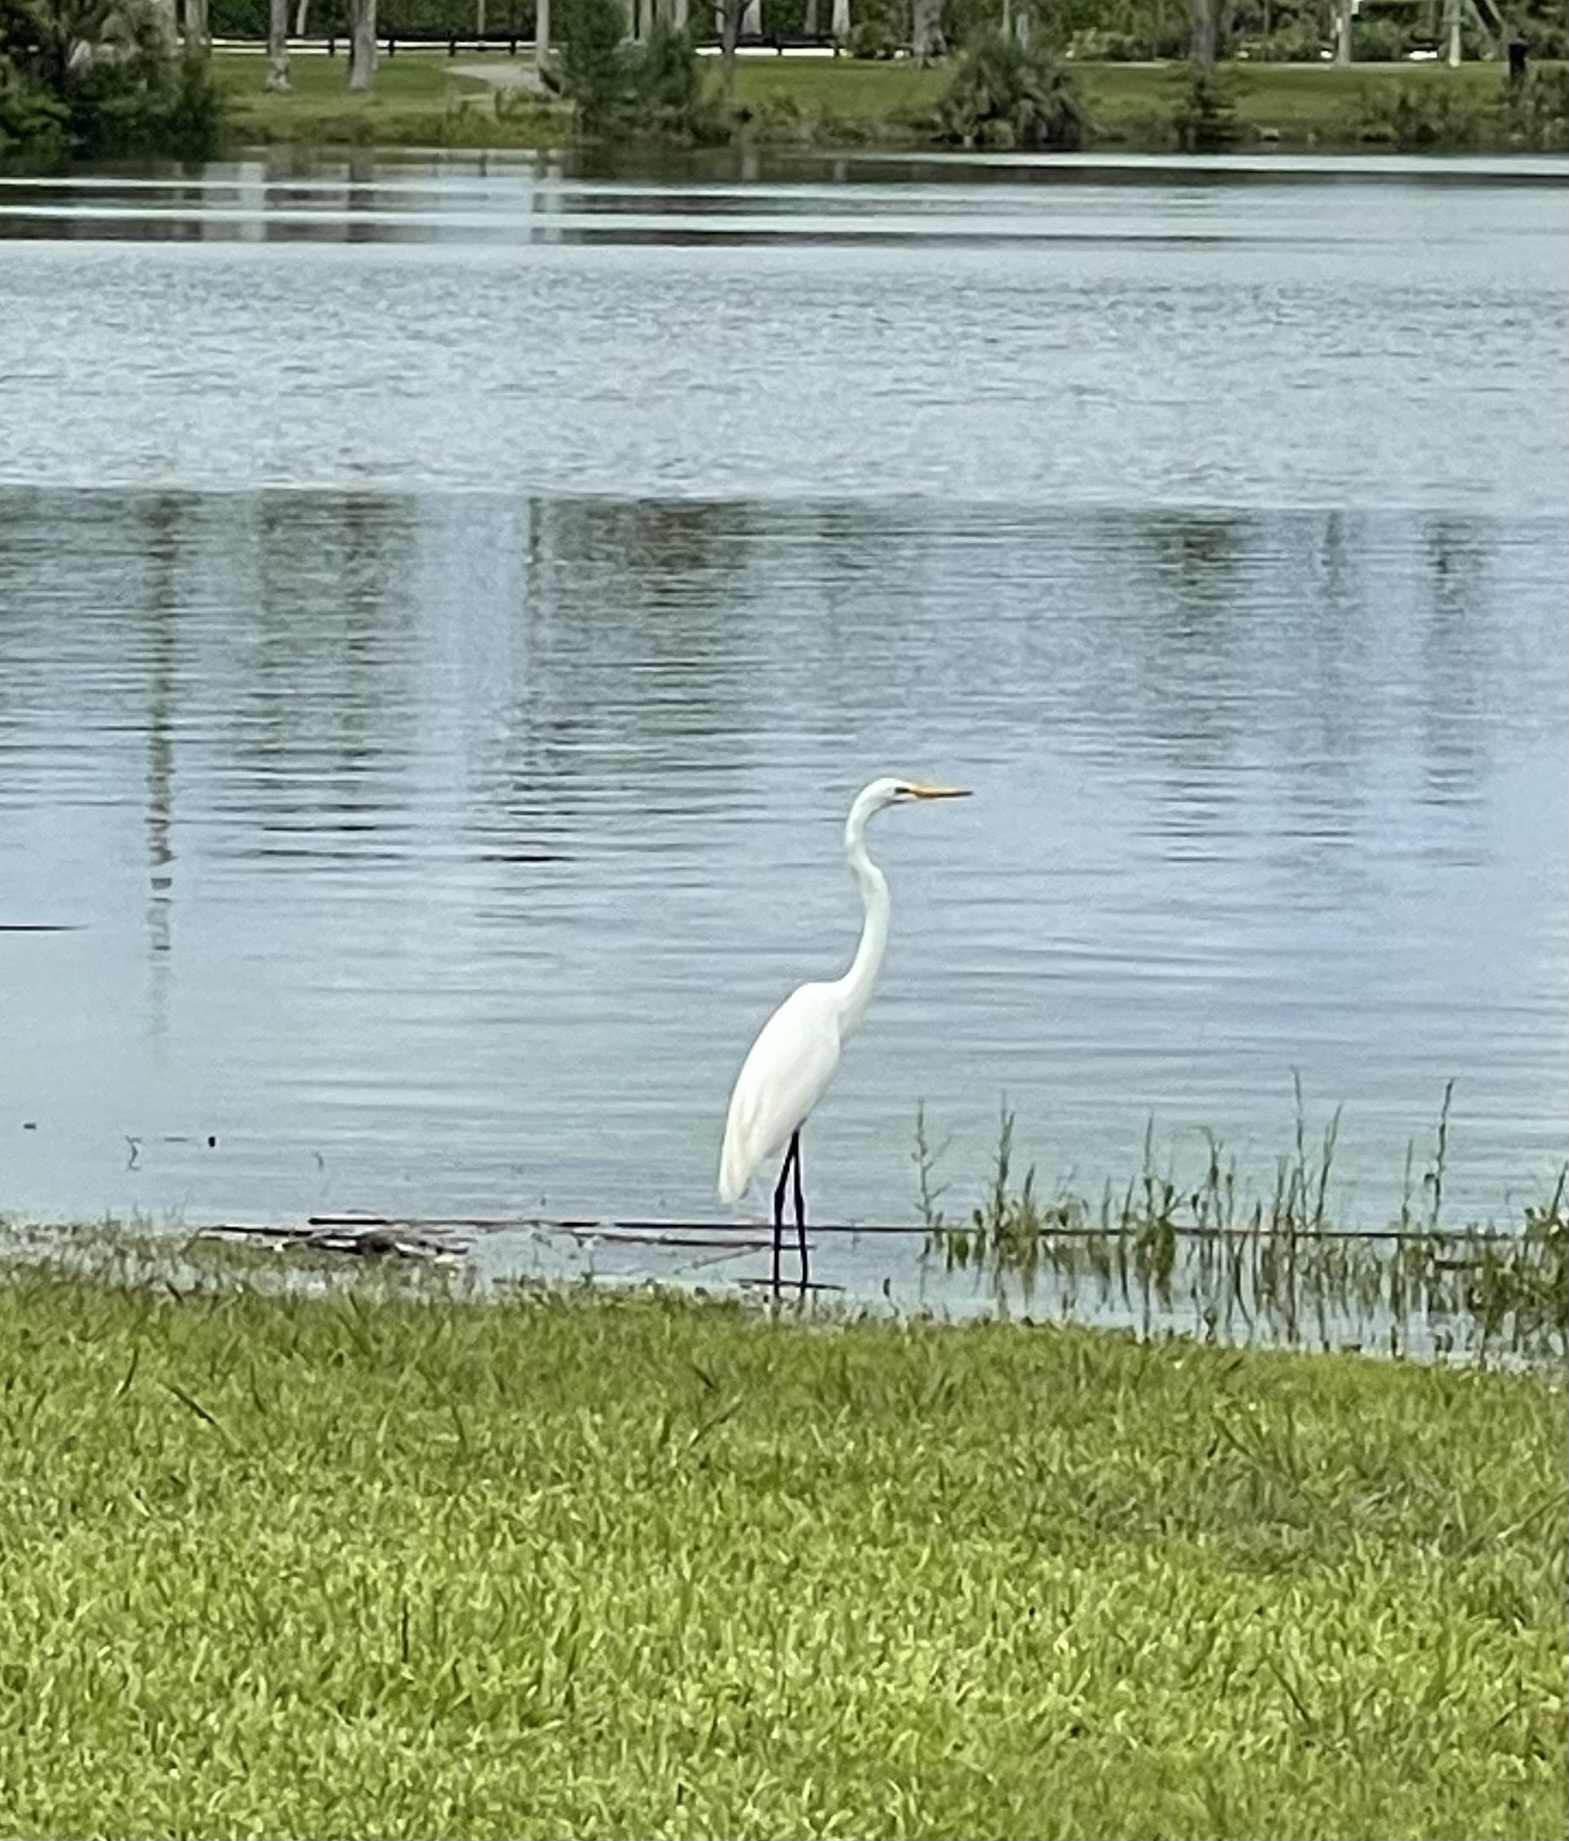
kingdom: Animalia
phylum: Chordata
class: Aves
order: Pelecaniformes
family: Ardeidae
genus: Ardea
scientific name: Ardea alba
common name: Great egret
